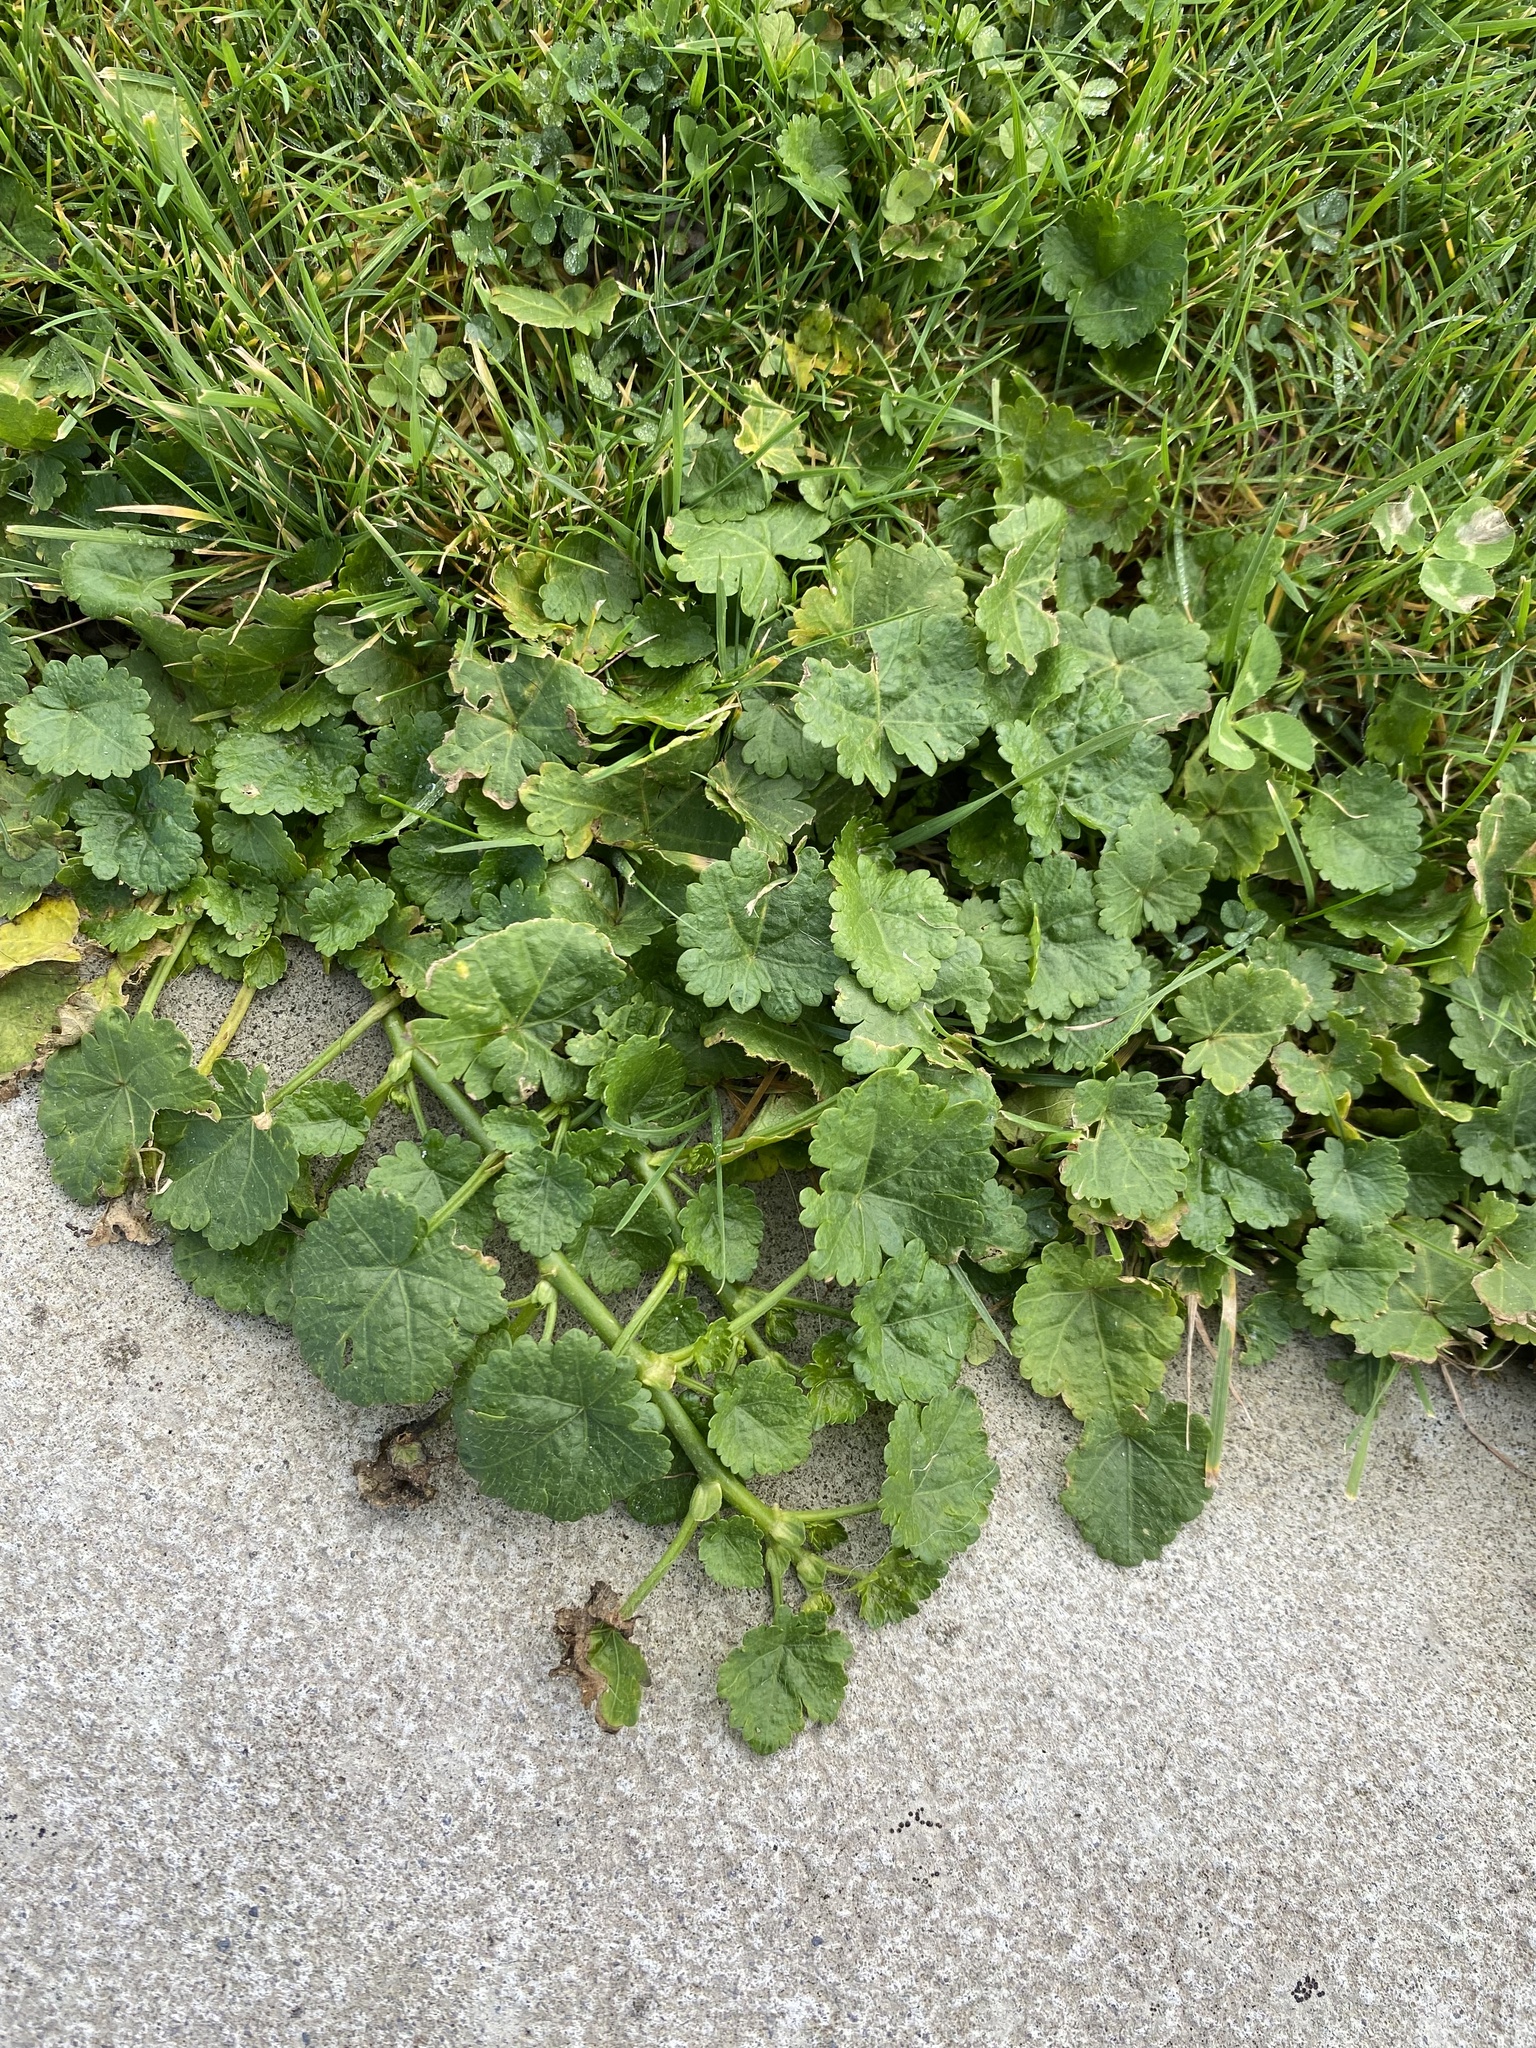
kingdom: Plantae
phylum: Tracheophyta
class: Magnoliopsida
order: Malvales
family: Malvaceae
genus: Modiola
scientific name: Modiola caroliniana
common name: Carolina bristlemallow
